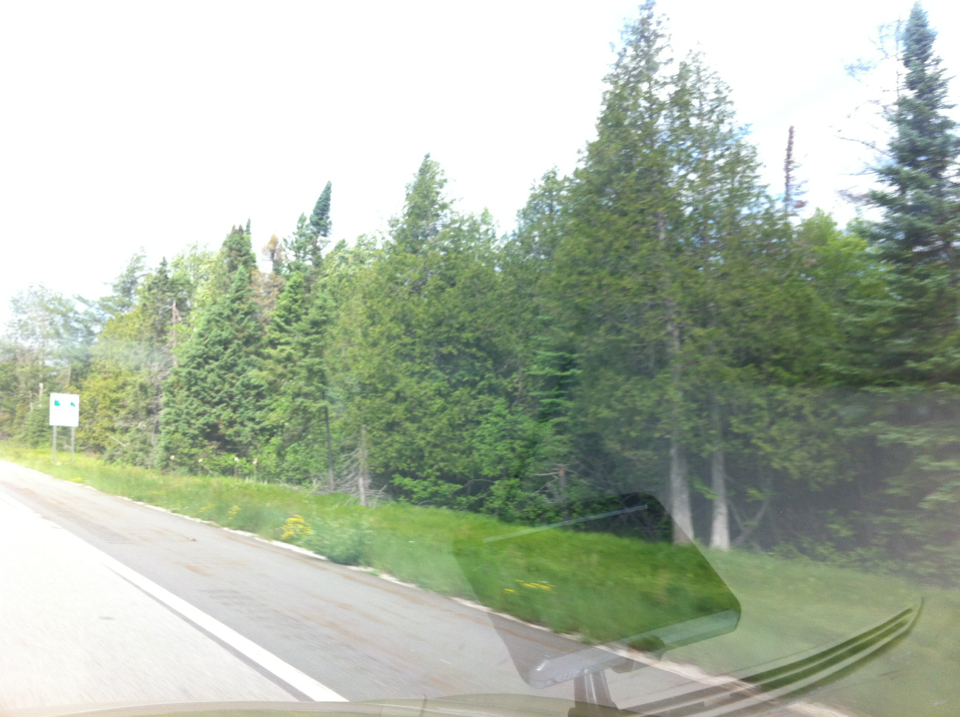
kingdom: Plantae
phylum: Tracheophyta
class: Pinopsida
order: Pinales
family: Cupressaceae
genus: Thuja
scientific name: Thuja occidentalis
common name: Northern white-cedar
